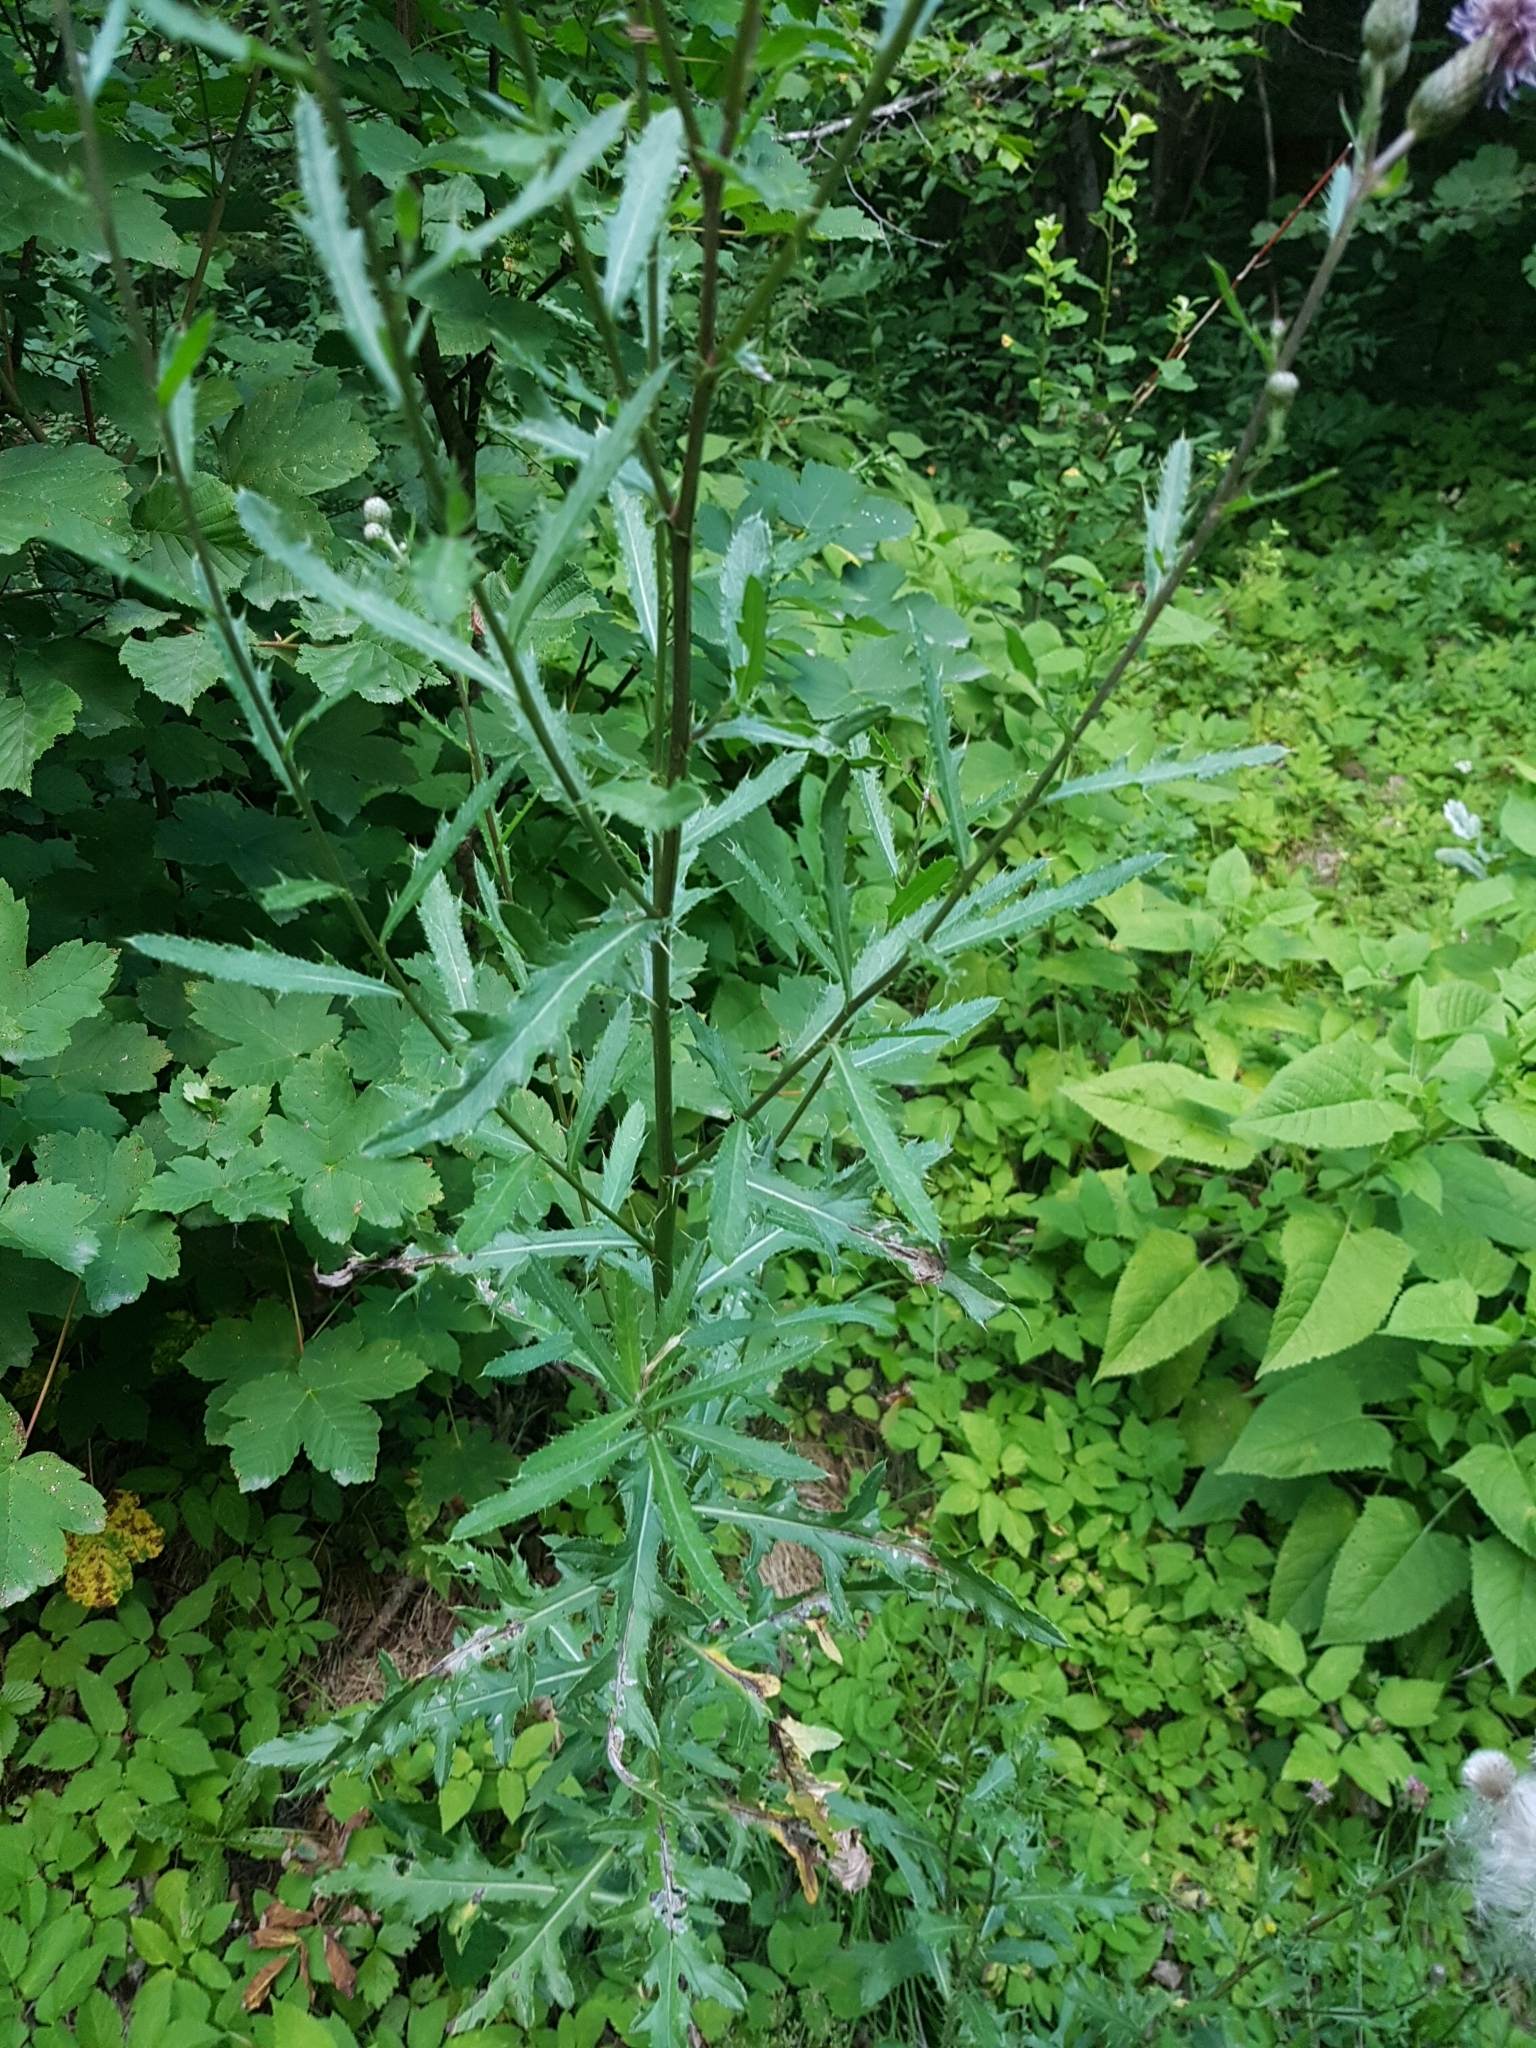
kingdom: Plantae
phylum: Tracheophyta
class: Magnoliopsida
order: Asterales
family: Asteraceae
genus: Cirsium
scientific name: Cirsium arvense
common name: Creeping thistle
